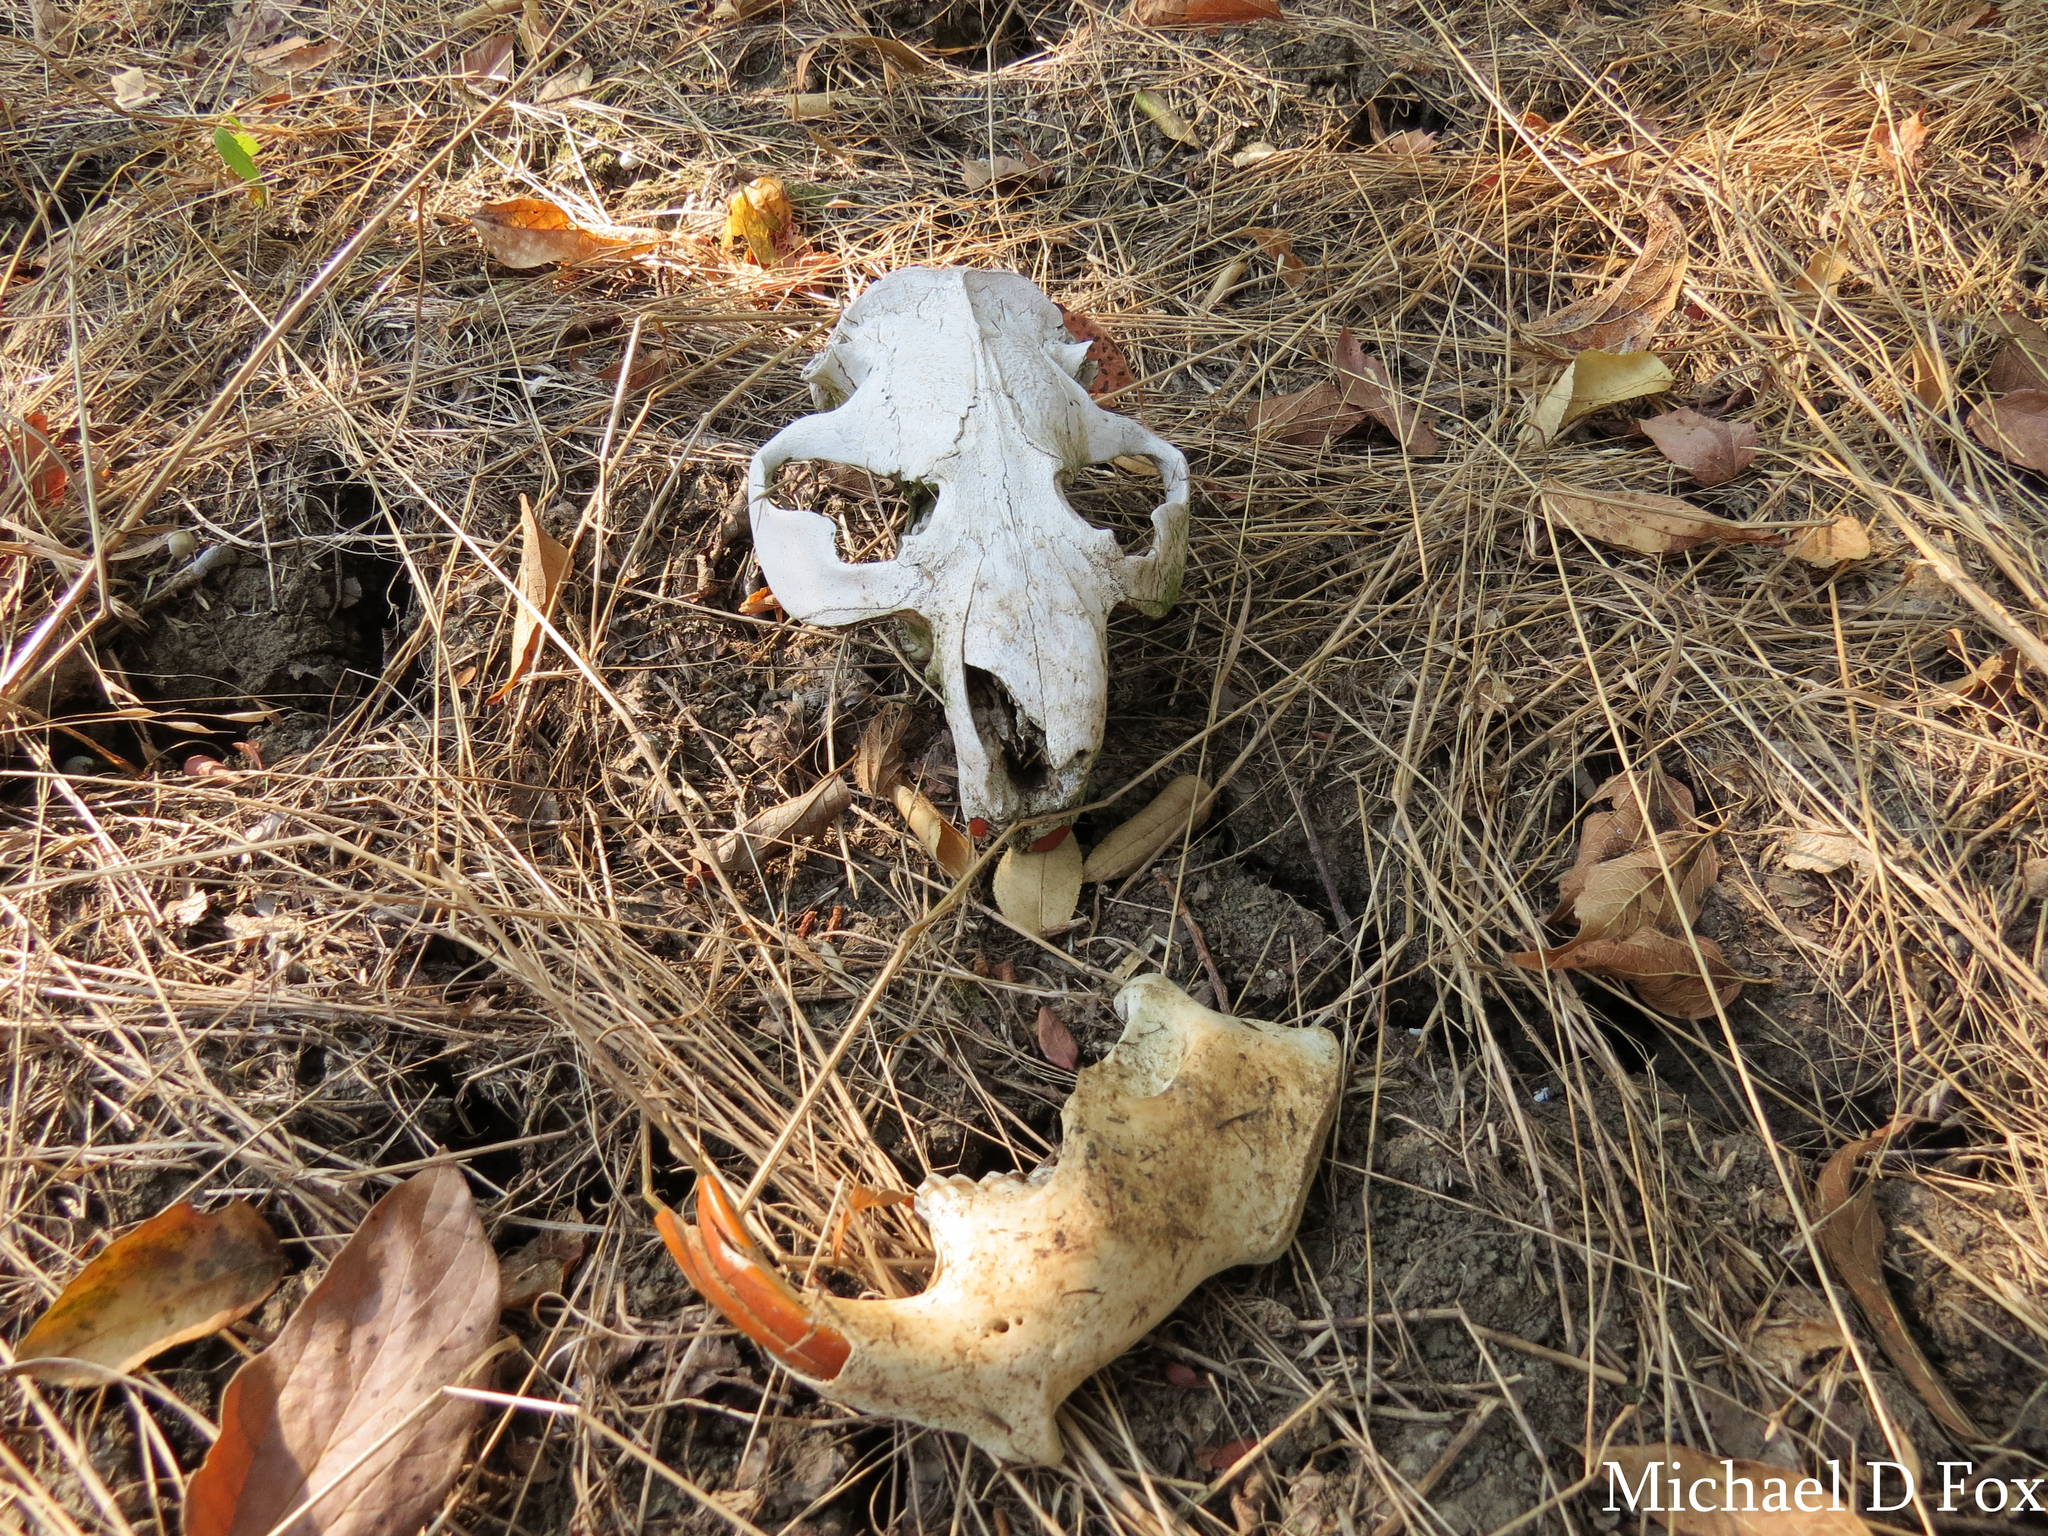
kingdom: Animalia
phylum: Chordata
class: Mammalia
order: Rodentia
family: Castoridae
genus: Castor
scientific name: Castor canadensis
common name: American beaver
